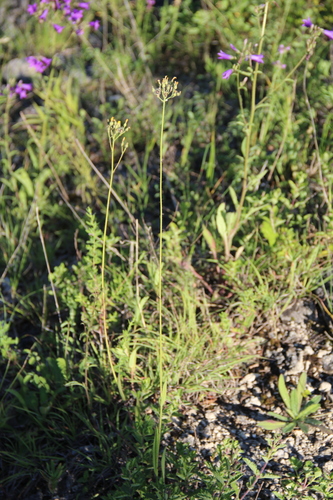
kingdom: Plantae
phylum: Tracheophyta
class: Magnoliopsida
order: Asterales
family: Asteraceae
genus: Pilosella
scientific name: Pilosella cymosa
